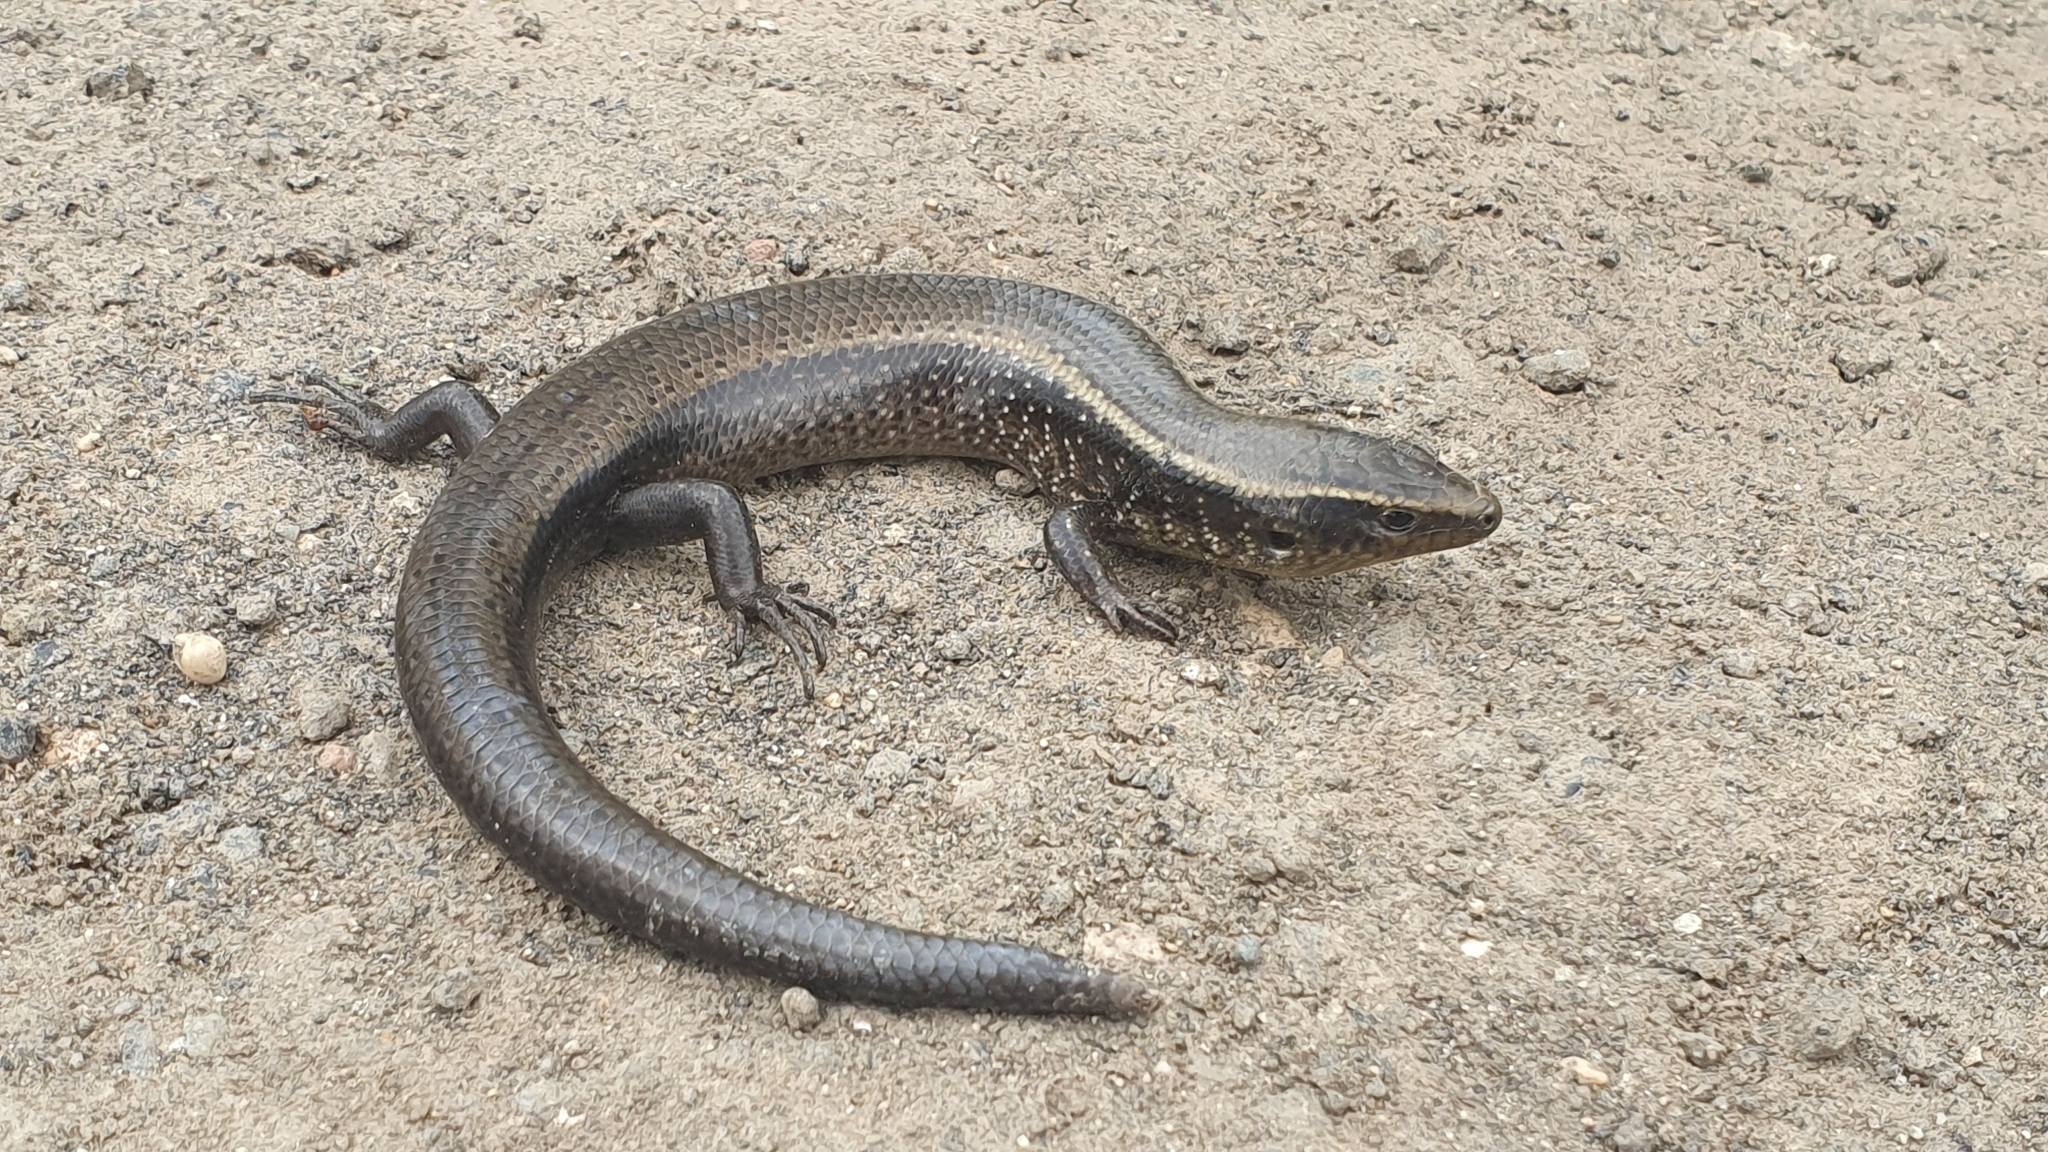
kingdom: Animalia
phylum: Chordata
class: Squamata
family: Scincidae
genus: Chalcides
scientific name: Chalcides sexlineatus
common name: Gran canaria skink
